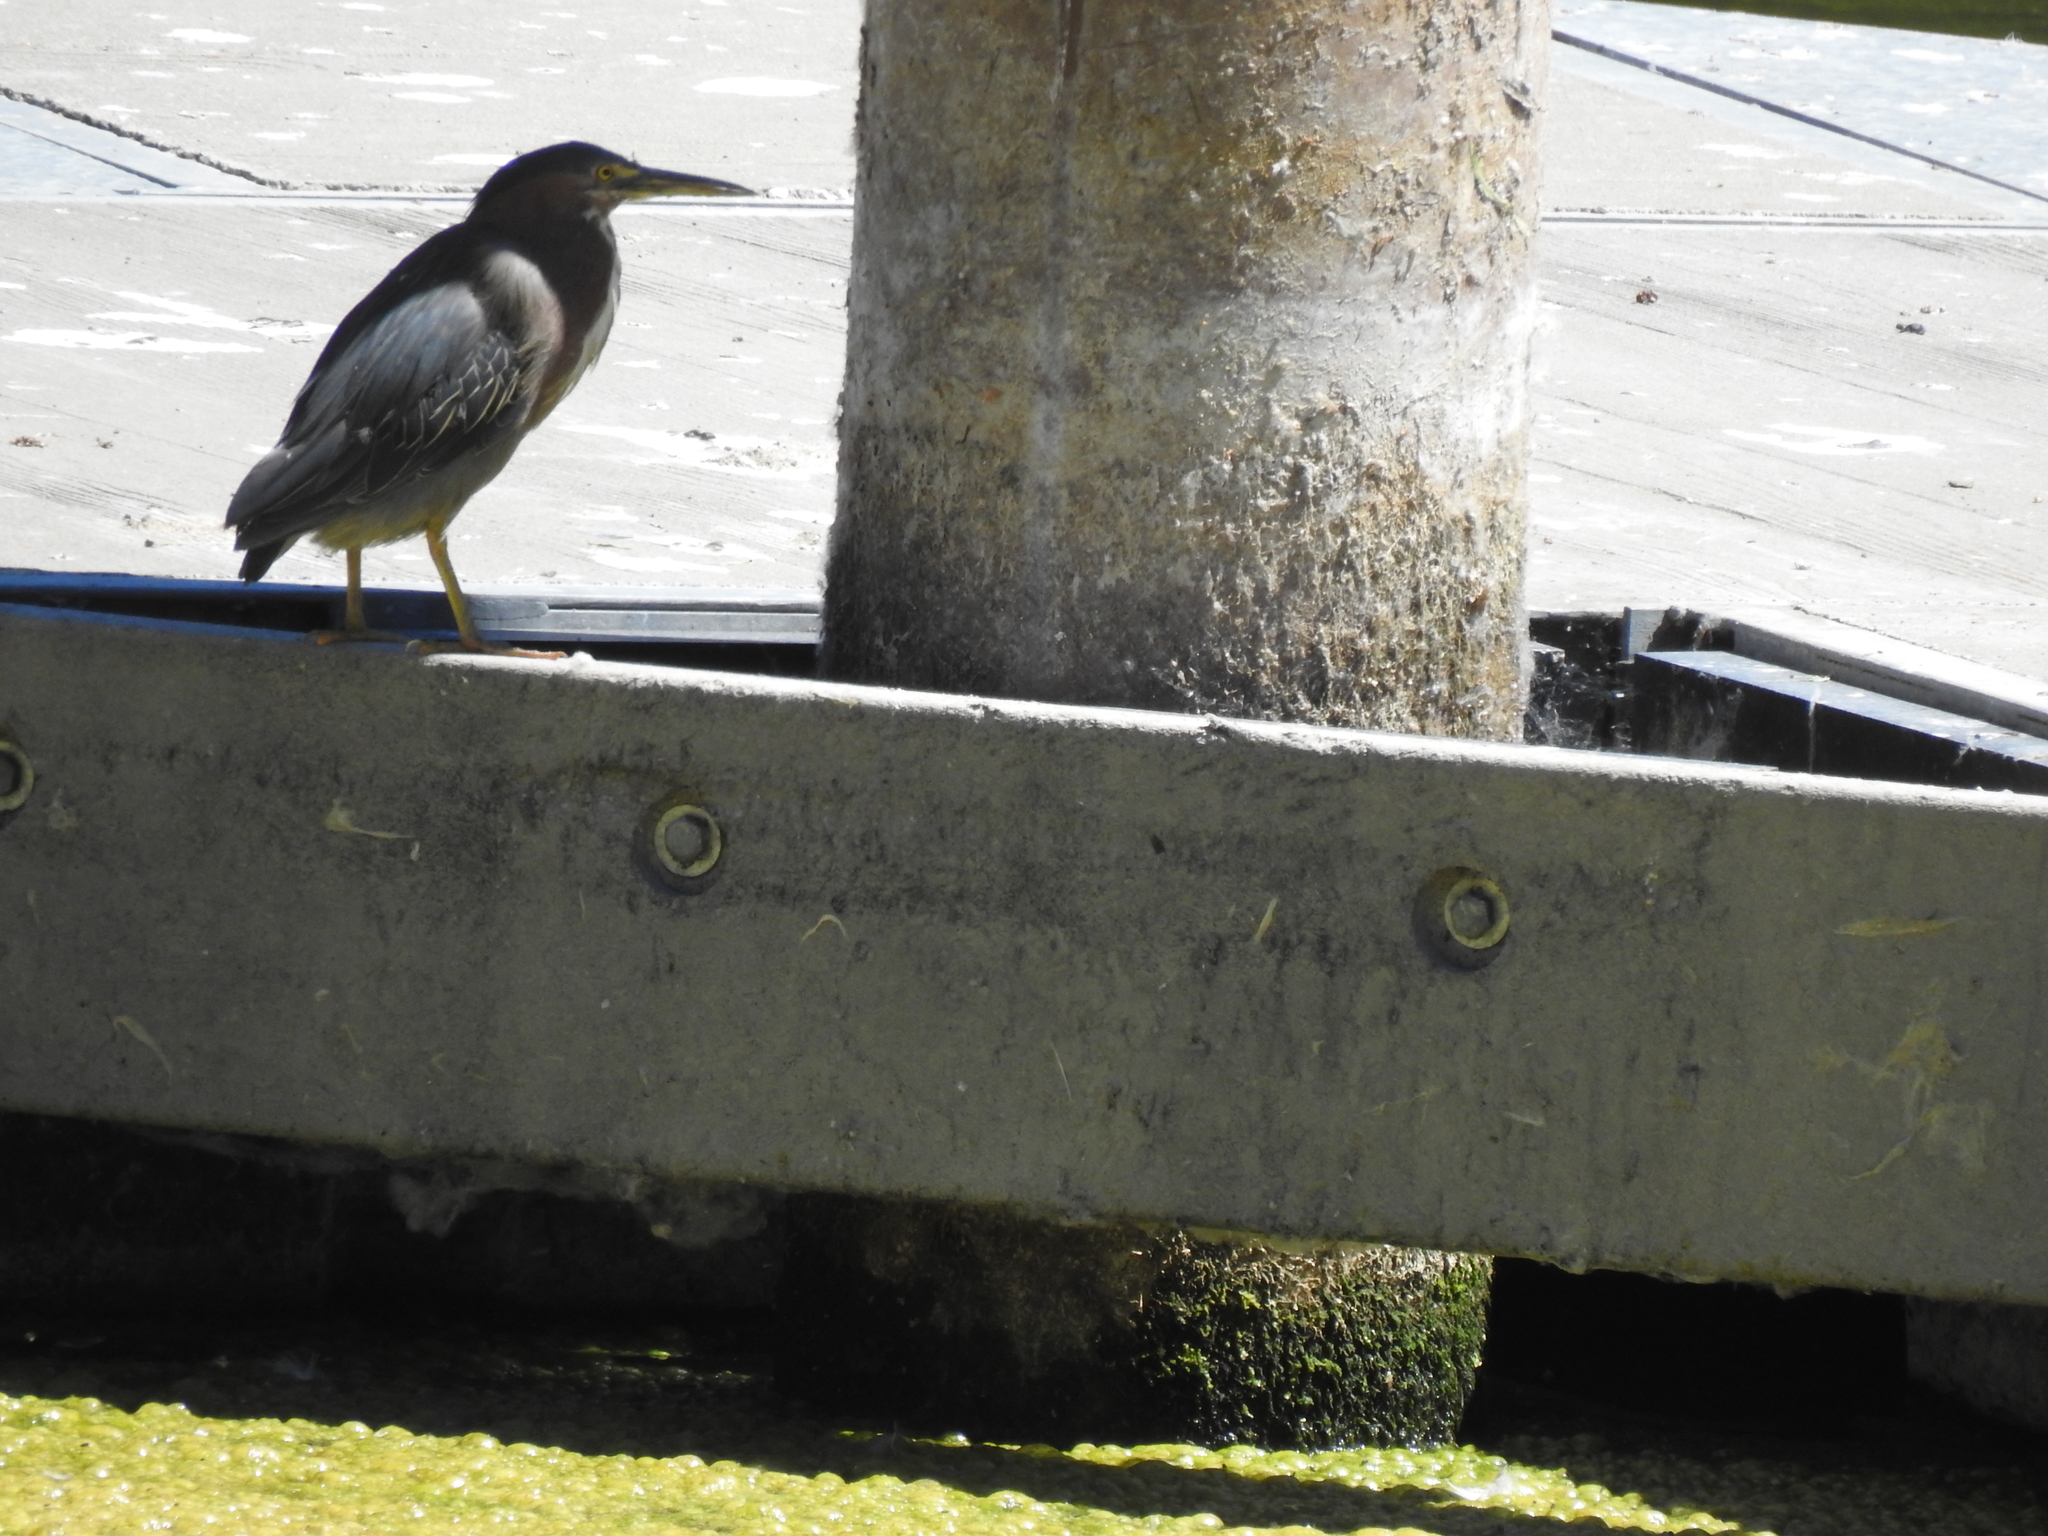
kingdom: Animalia
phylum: Chordata
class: Aves
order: Pelecaniformes
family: Ardeidae
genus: Butorides
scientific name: Butorides virescens
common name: Green heron
